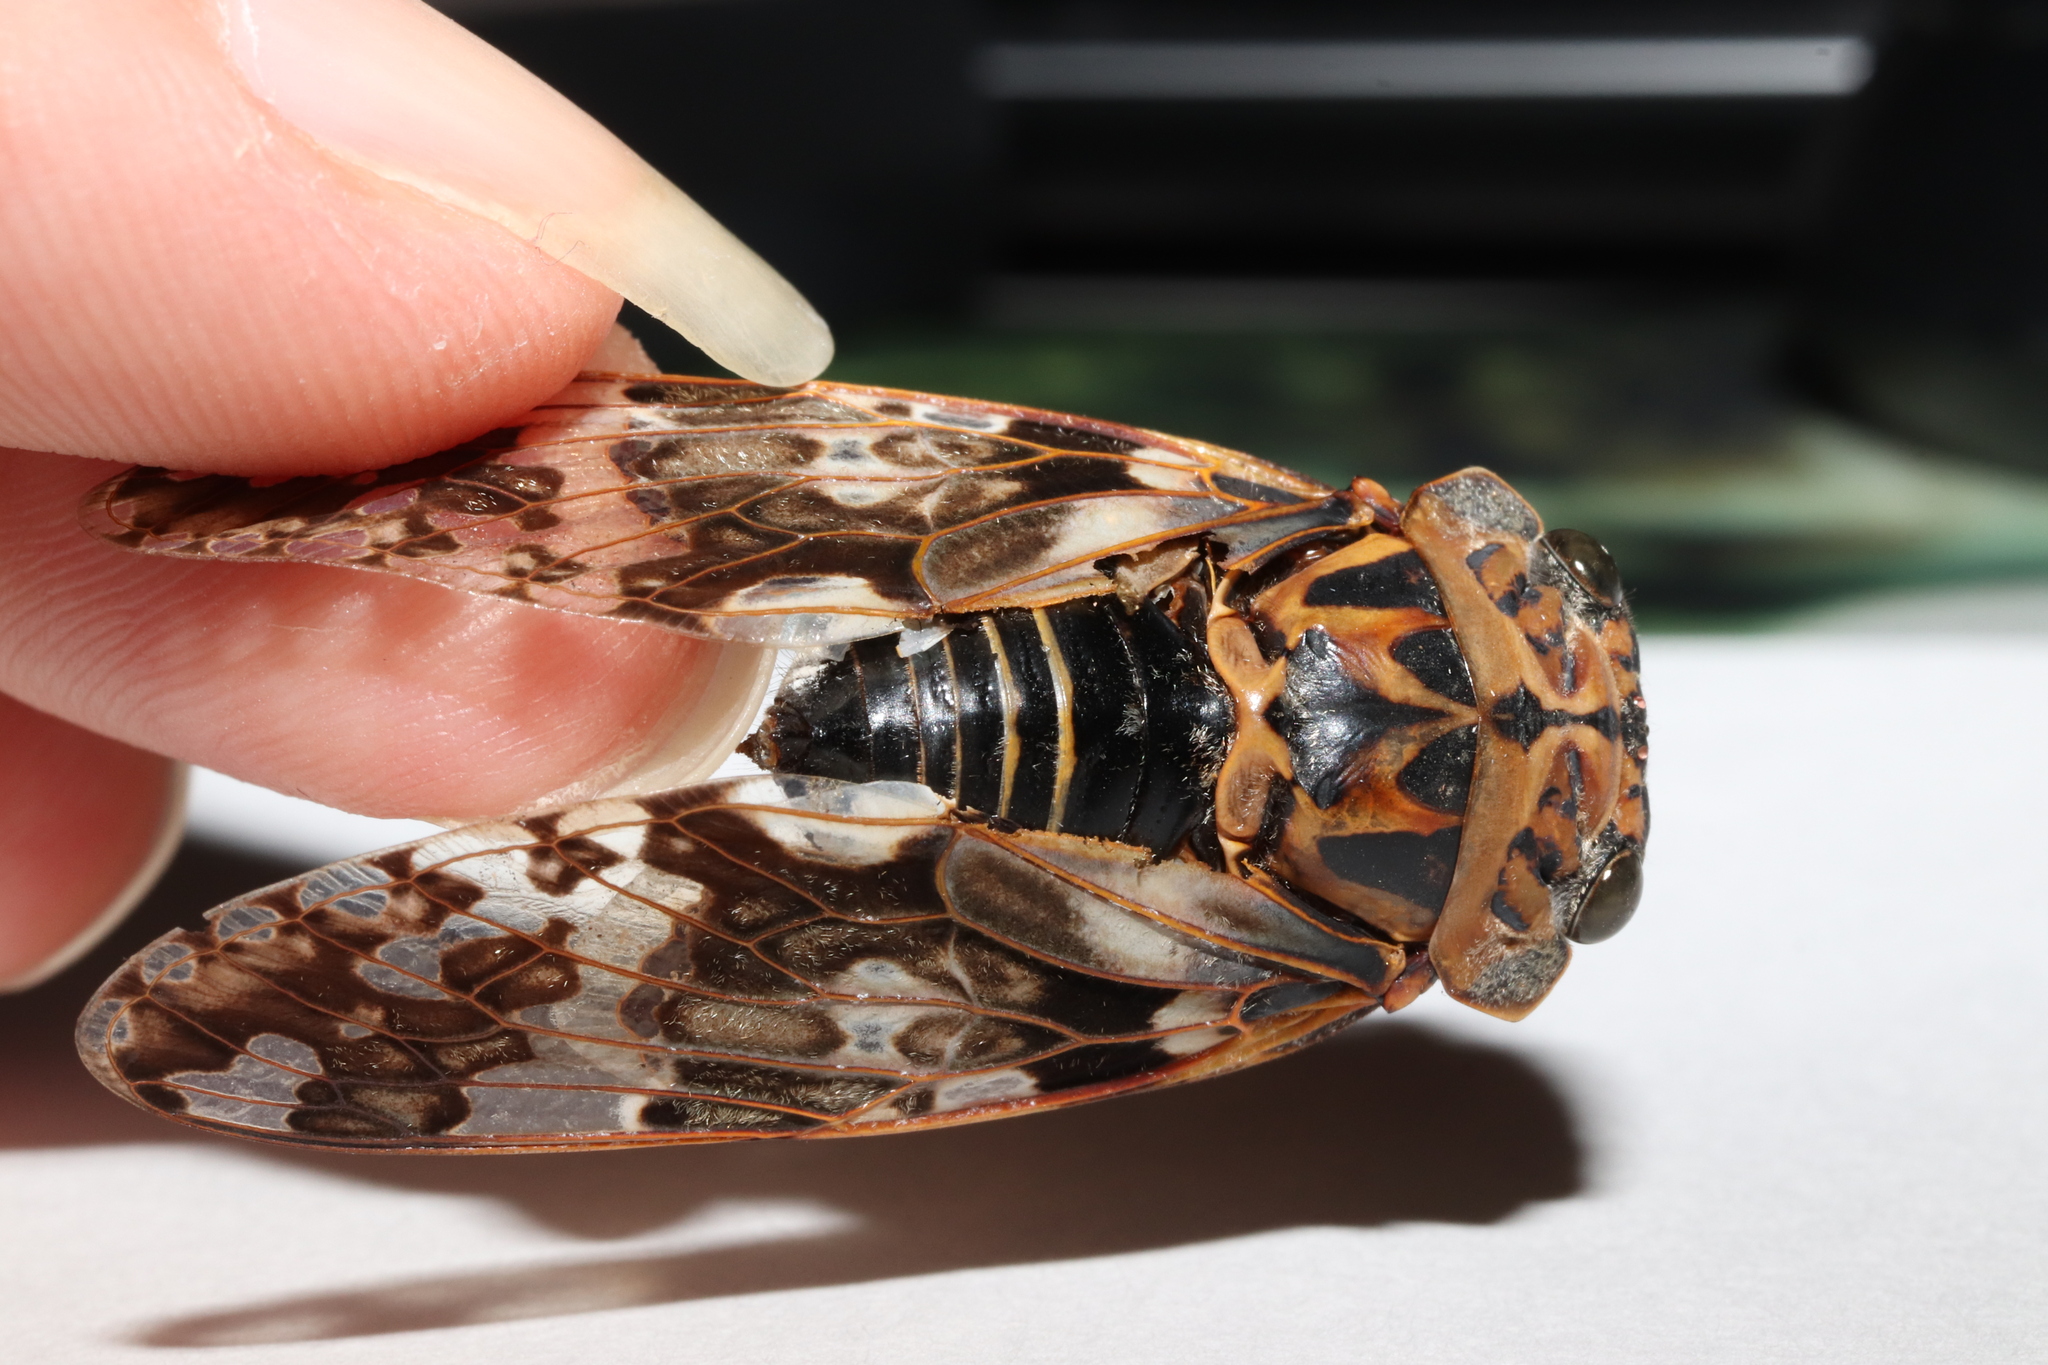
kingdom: Animalia
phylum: Arthropoda
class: Insecta
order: Hemiptera
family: Cicadidae
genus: Platypleura
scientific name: Platypleura kaempferi
